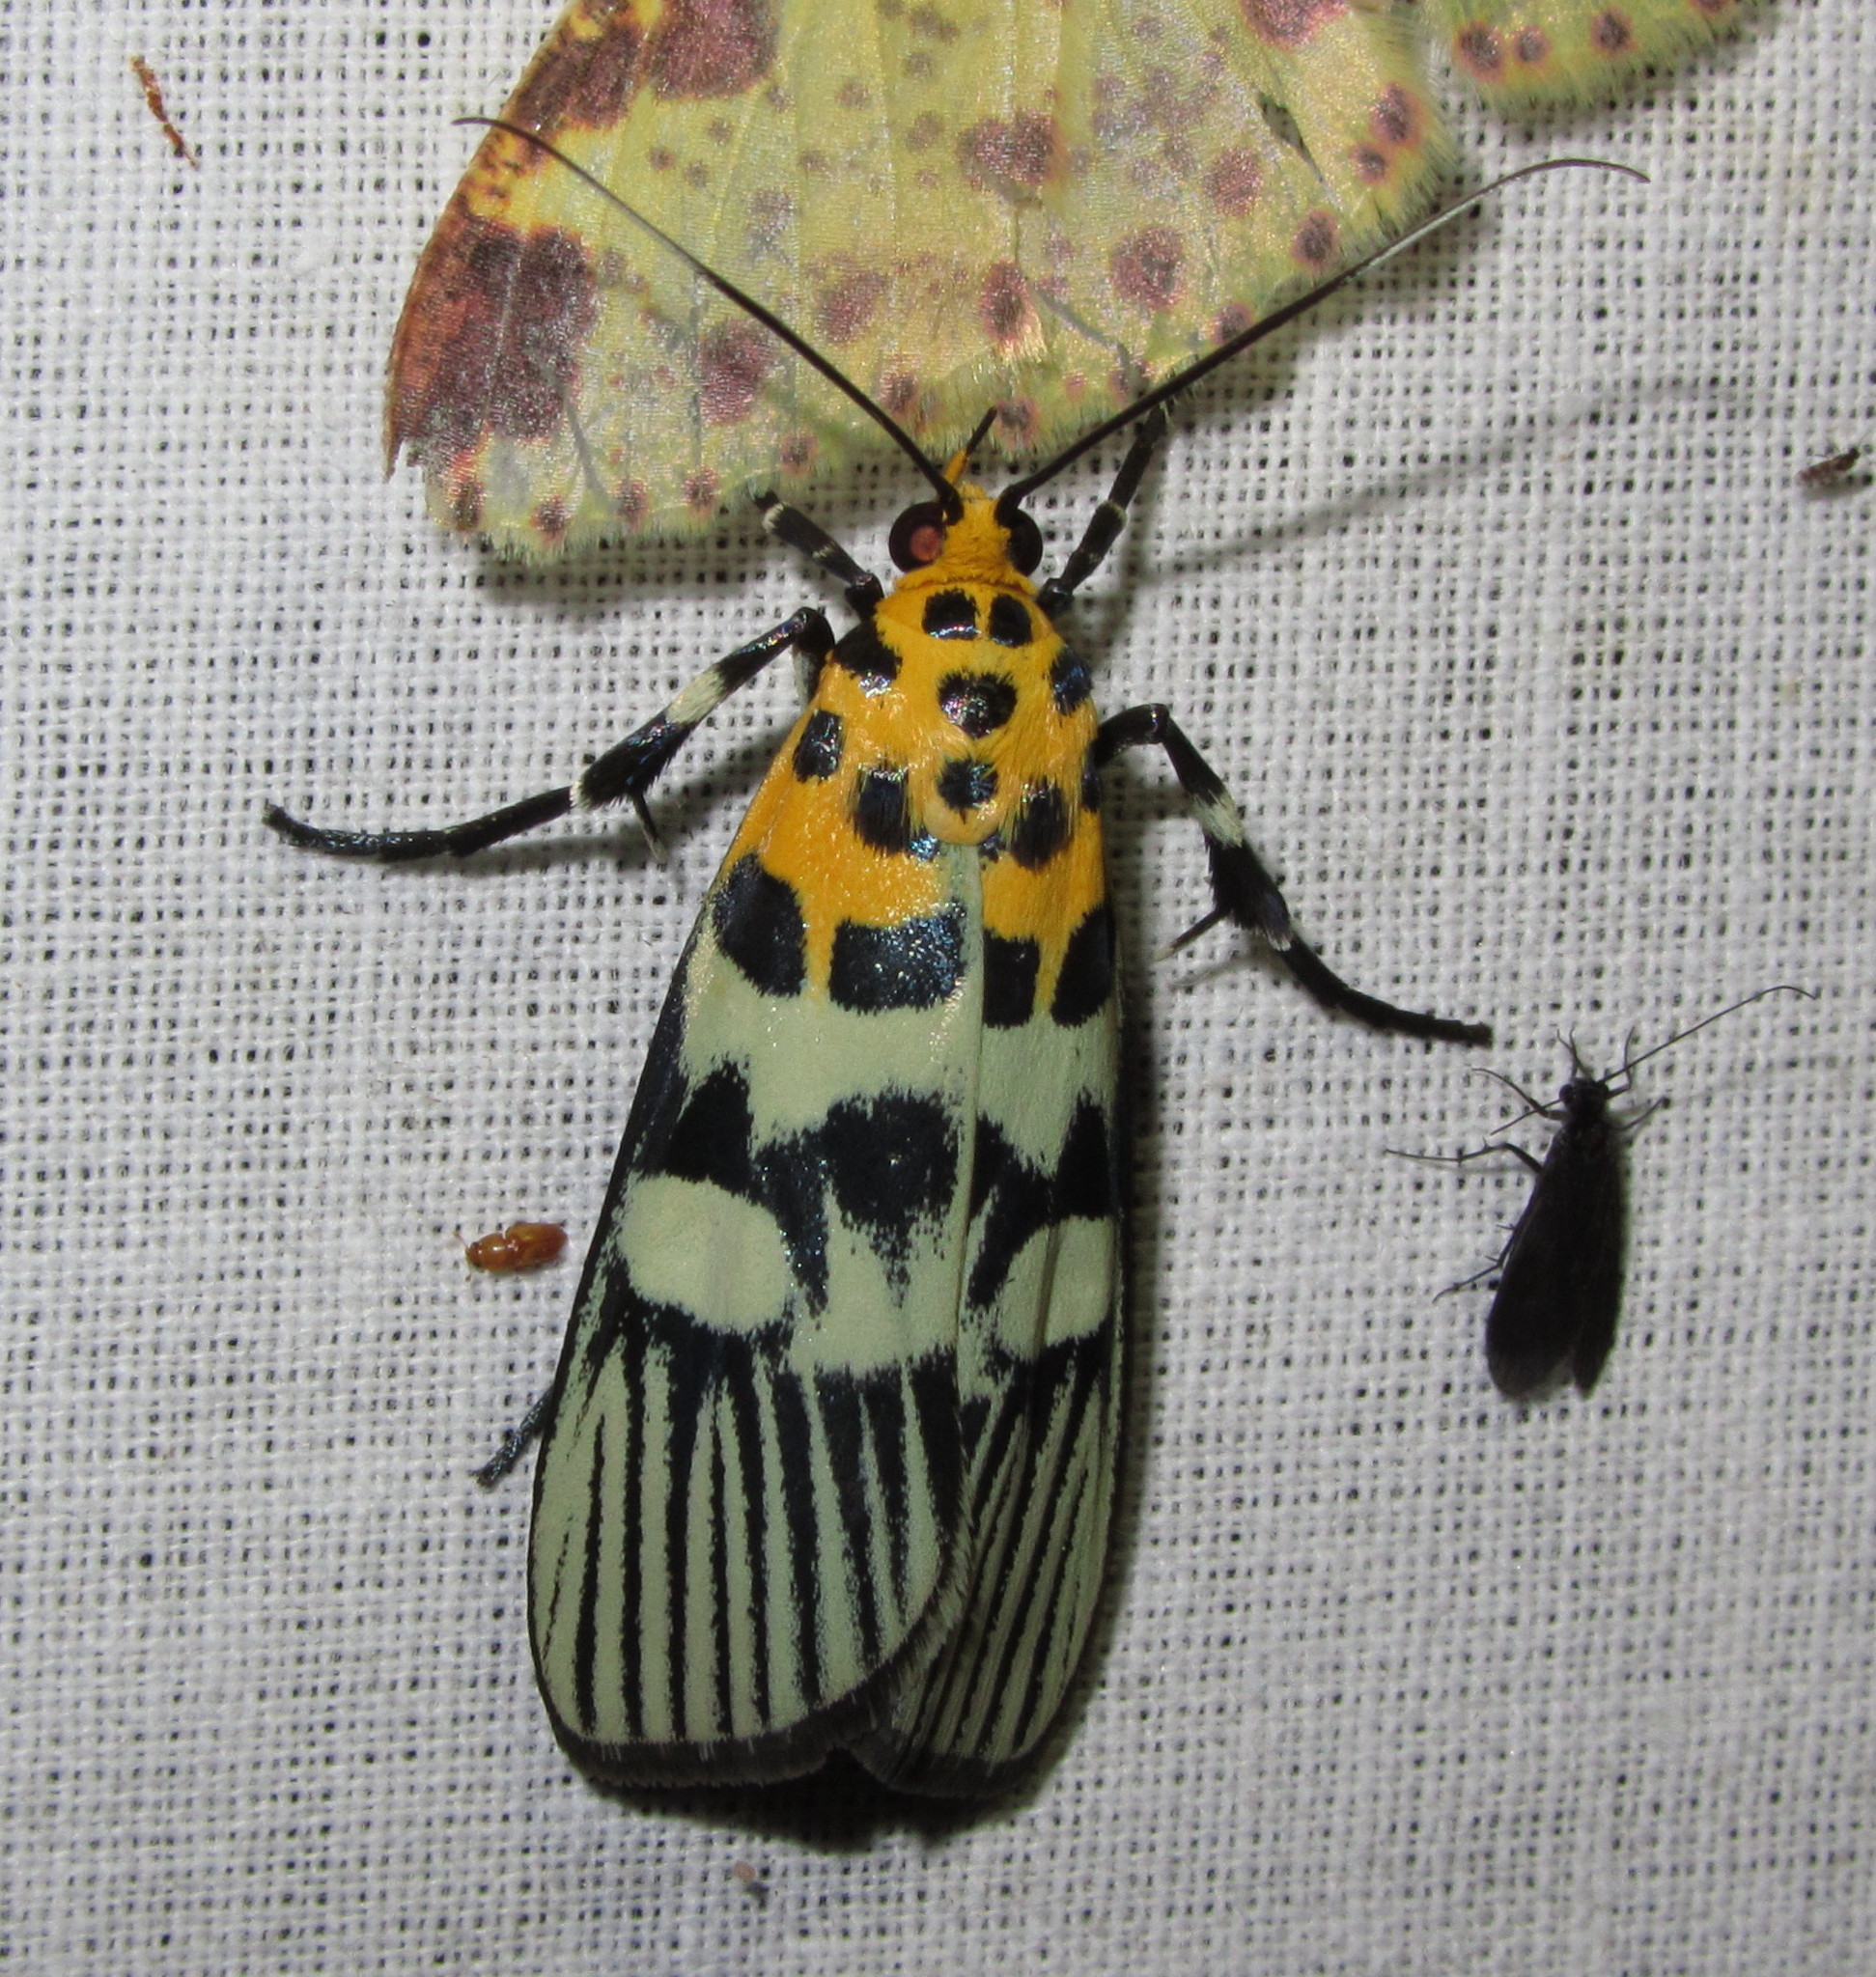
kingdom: Animalia
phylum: Arthropoda
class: Insecta
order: Lepidoptera
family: Pyralidae
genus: Vitessa
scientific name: Vitessa suradeva
